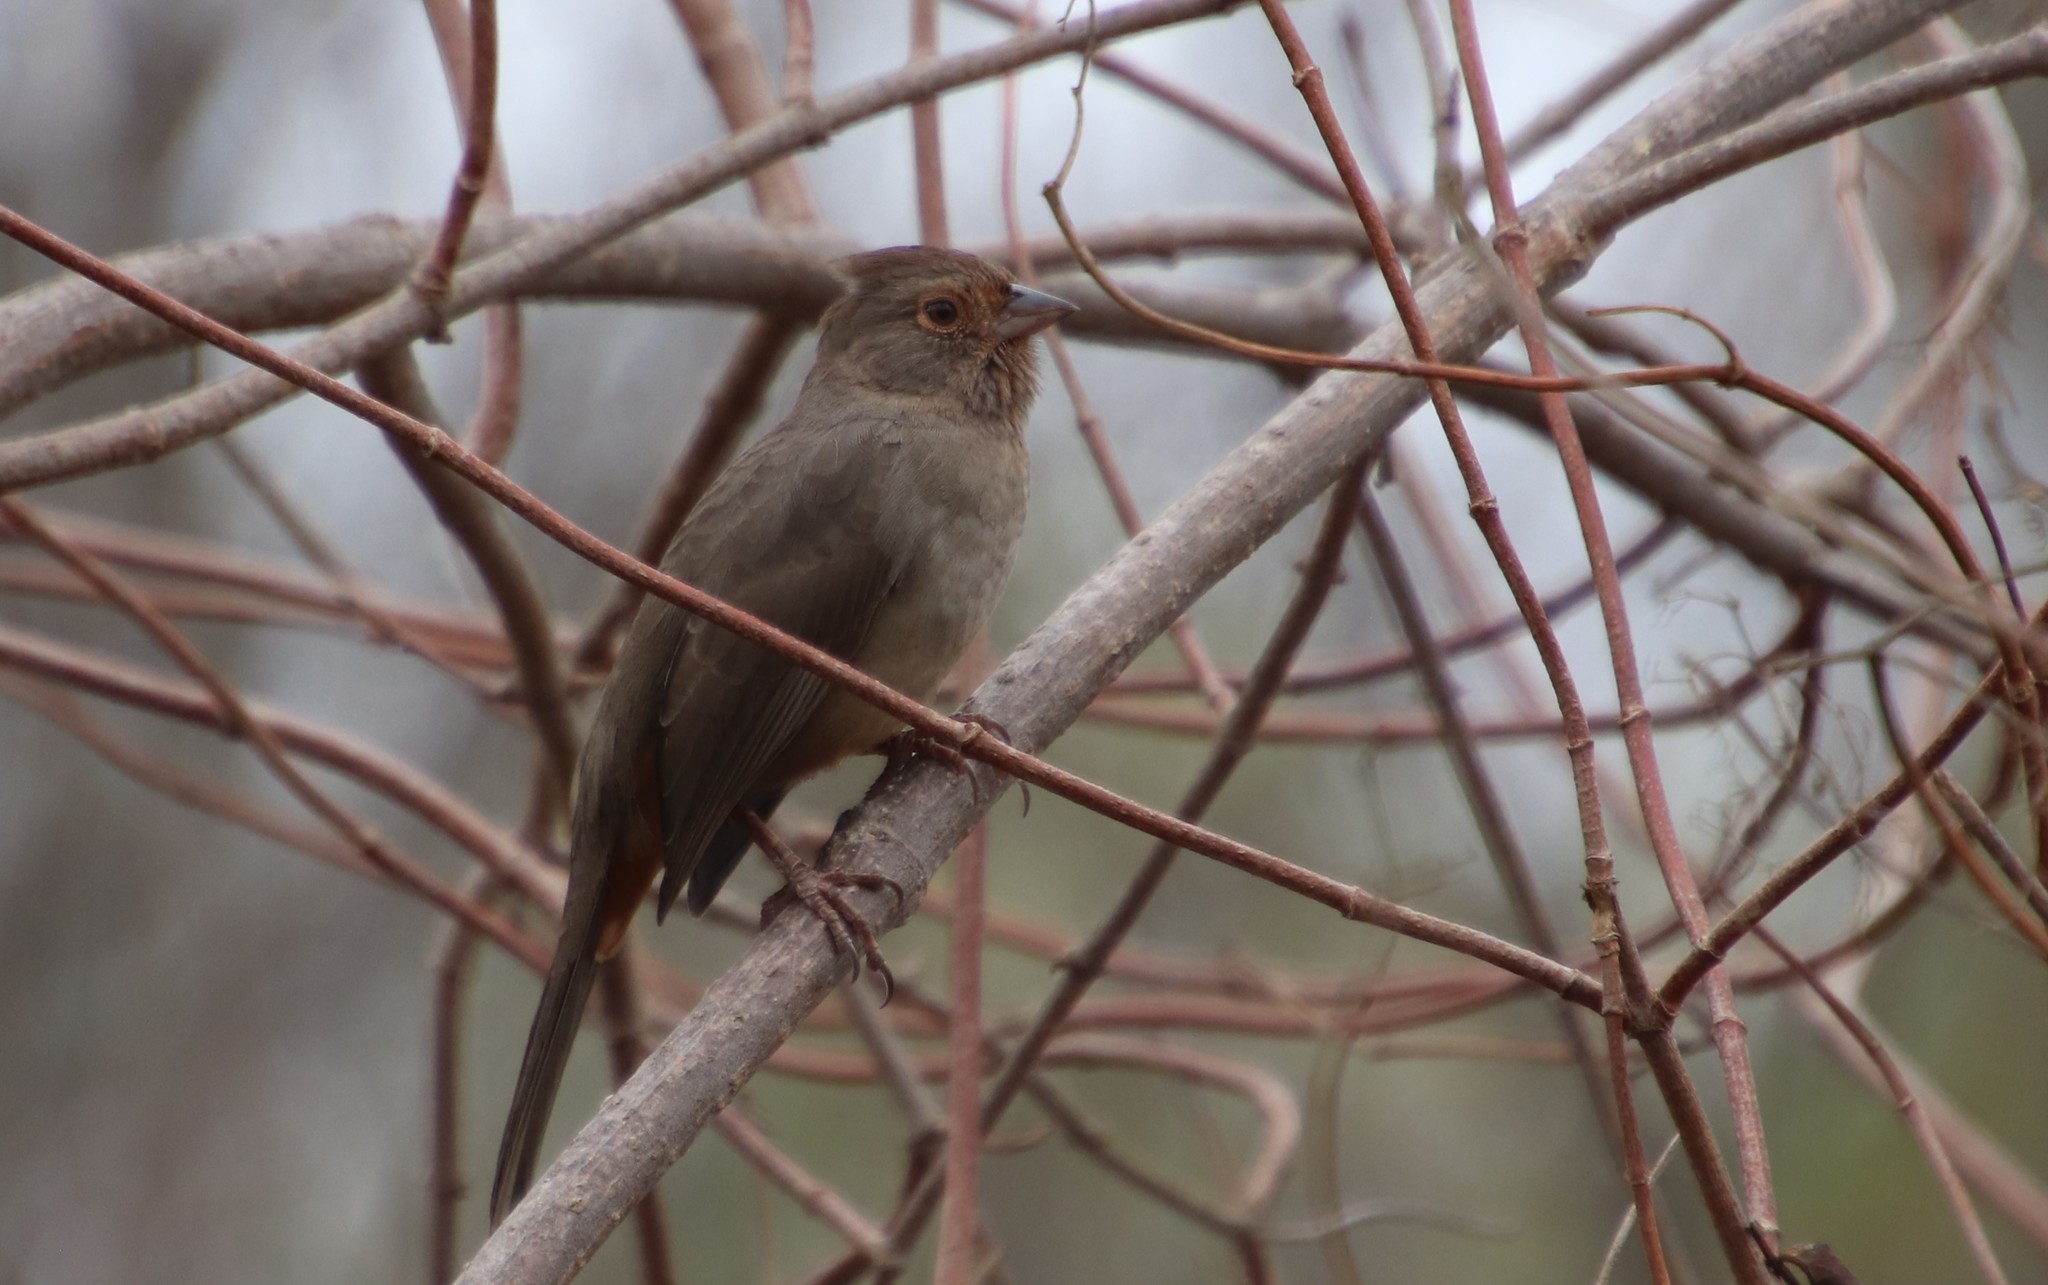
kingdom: Animalia
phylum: Chordata
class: Aves
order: Passeriformes
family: Passerellidae
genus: Melozone
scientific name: Melozone crissalis
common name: California towhee
